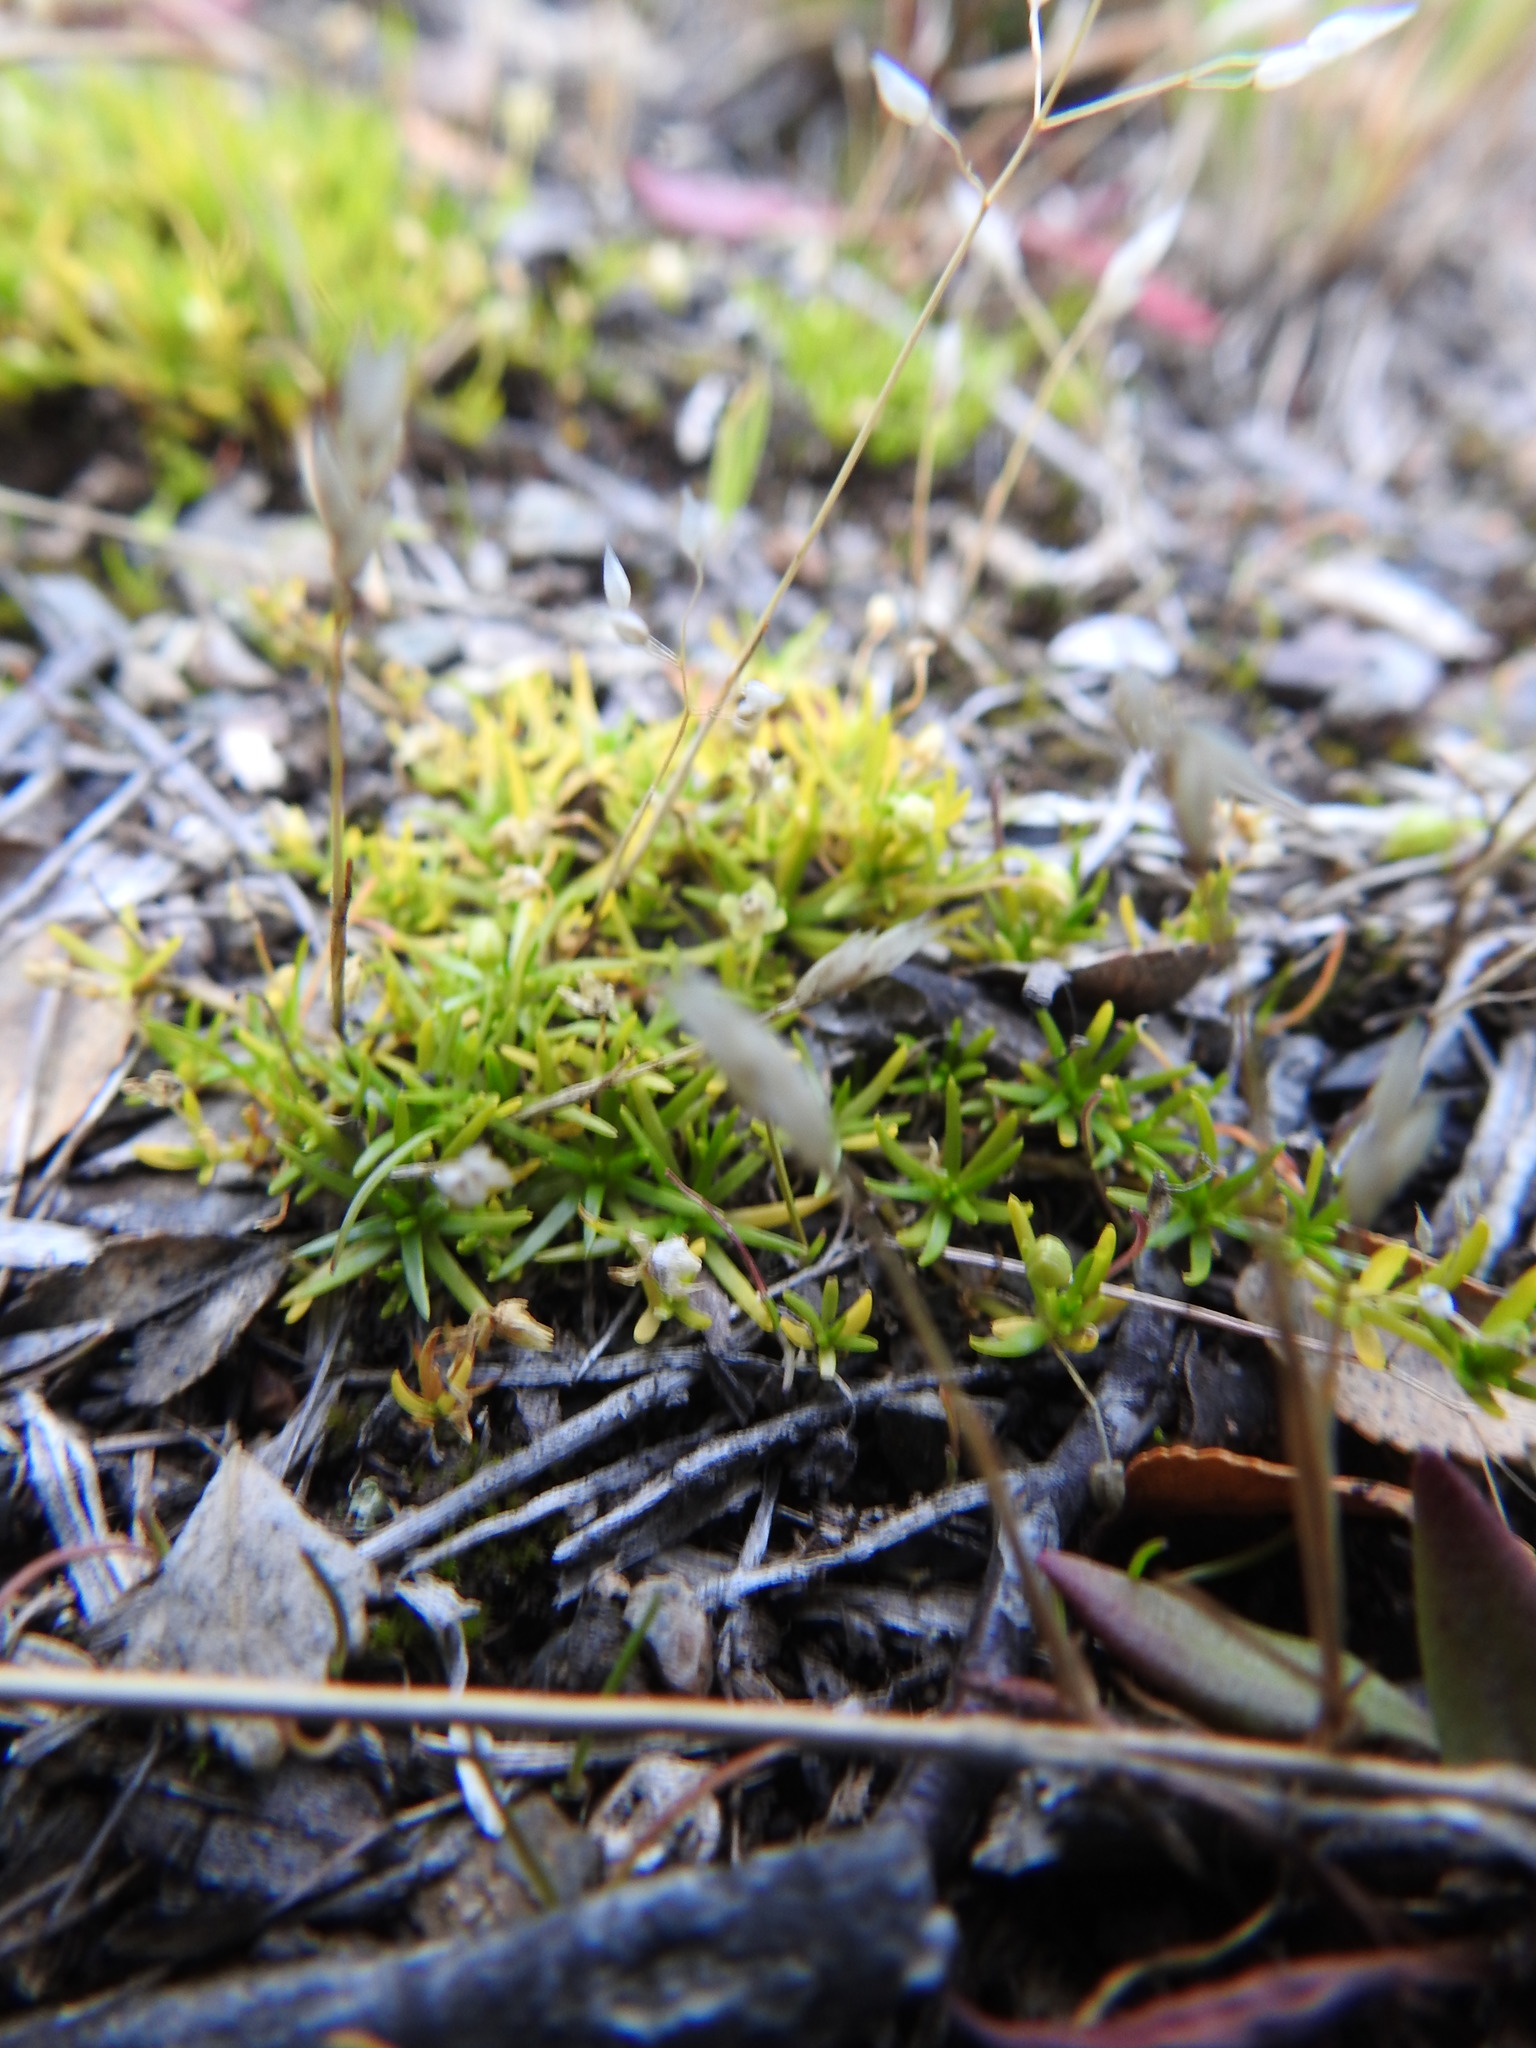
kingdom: Plantae
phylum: Tracheophyta
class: Magnoliopsida
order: Caryophyllales
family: Caryophyllaceae
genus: Sagina
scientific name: Sagina procumbens
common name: Procumbent pearlwort
